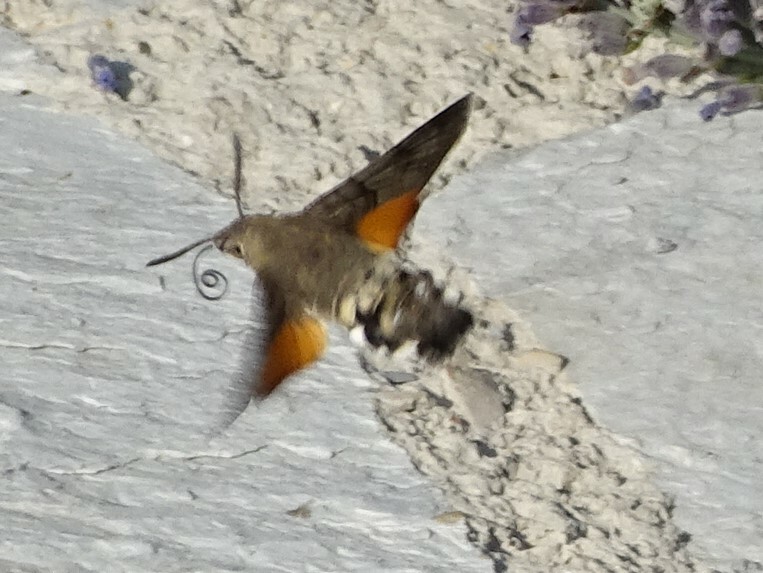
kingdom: Animalia
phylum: Arthropoda
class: Insecta
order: Lepidoptera
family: Sphingidae
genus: Macroglossum
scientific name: Macroglossum stellatarum
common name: Humming-bird hawk-moth
